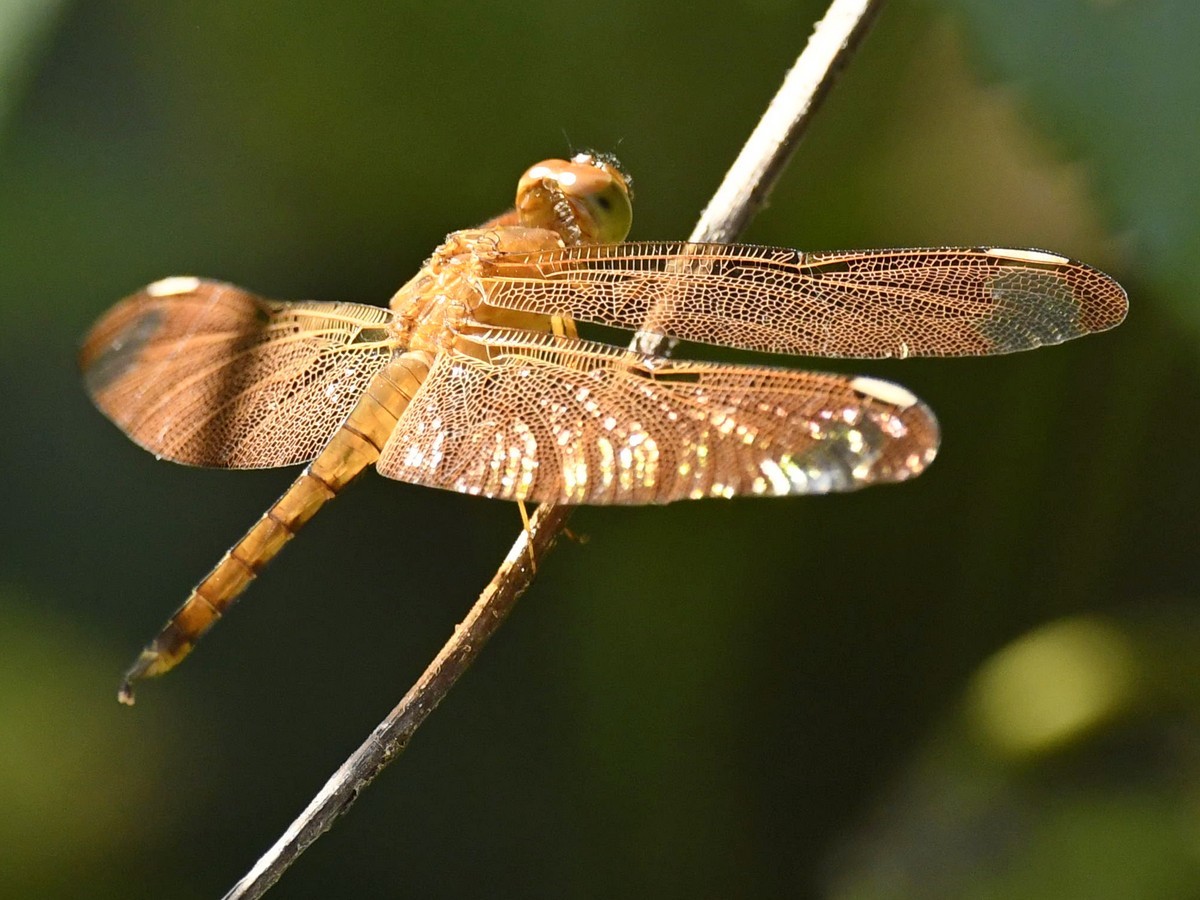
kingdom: Animalia
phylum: Arthropoda
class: Insecta
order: Odonata
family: Libellulidae
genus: Neurothemis
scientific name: Neurothemis fulvia
